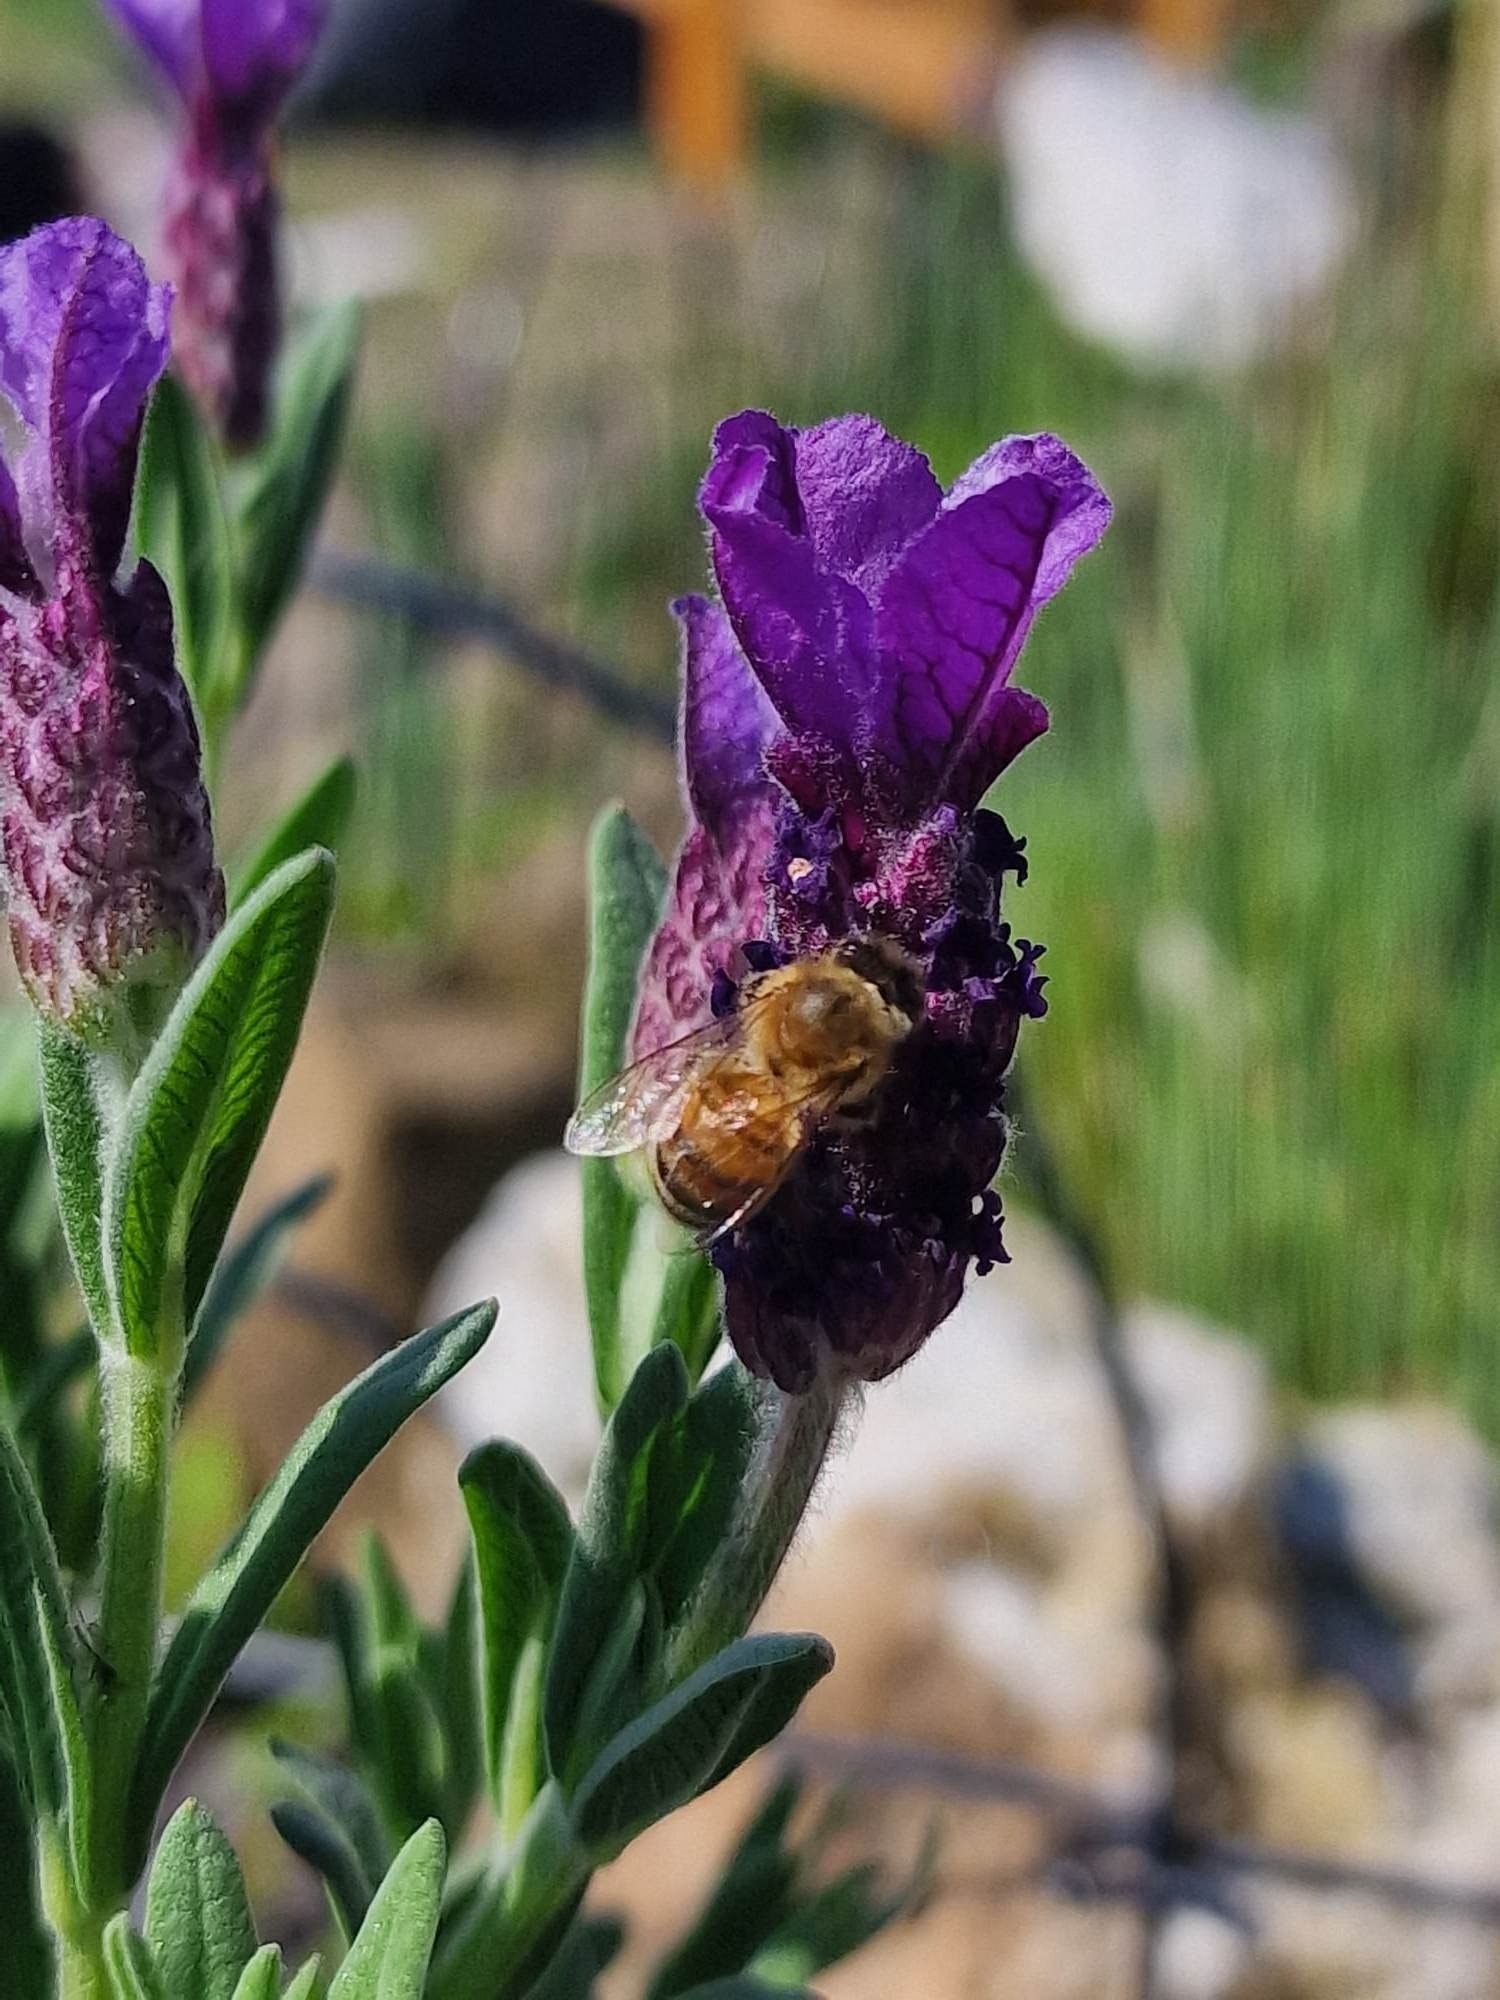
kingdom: Animalia
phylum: Arthropoda
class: Insecta
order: Hymenoptera
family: Apidae
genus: Apis
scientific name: Apis mellifera
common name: Honey bee
